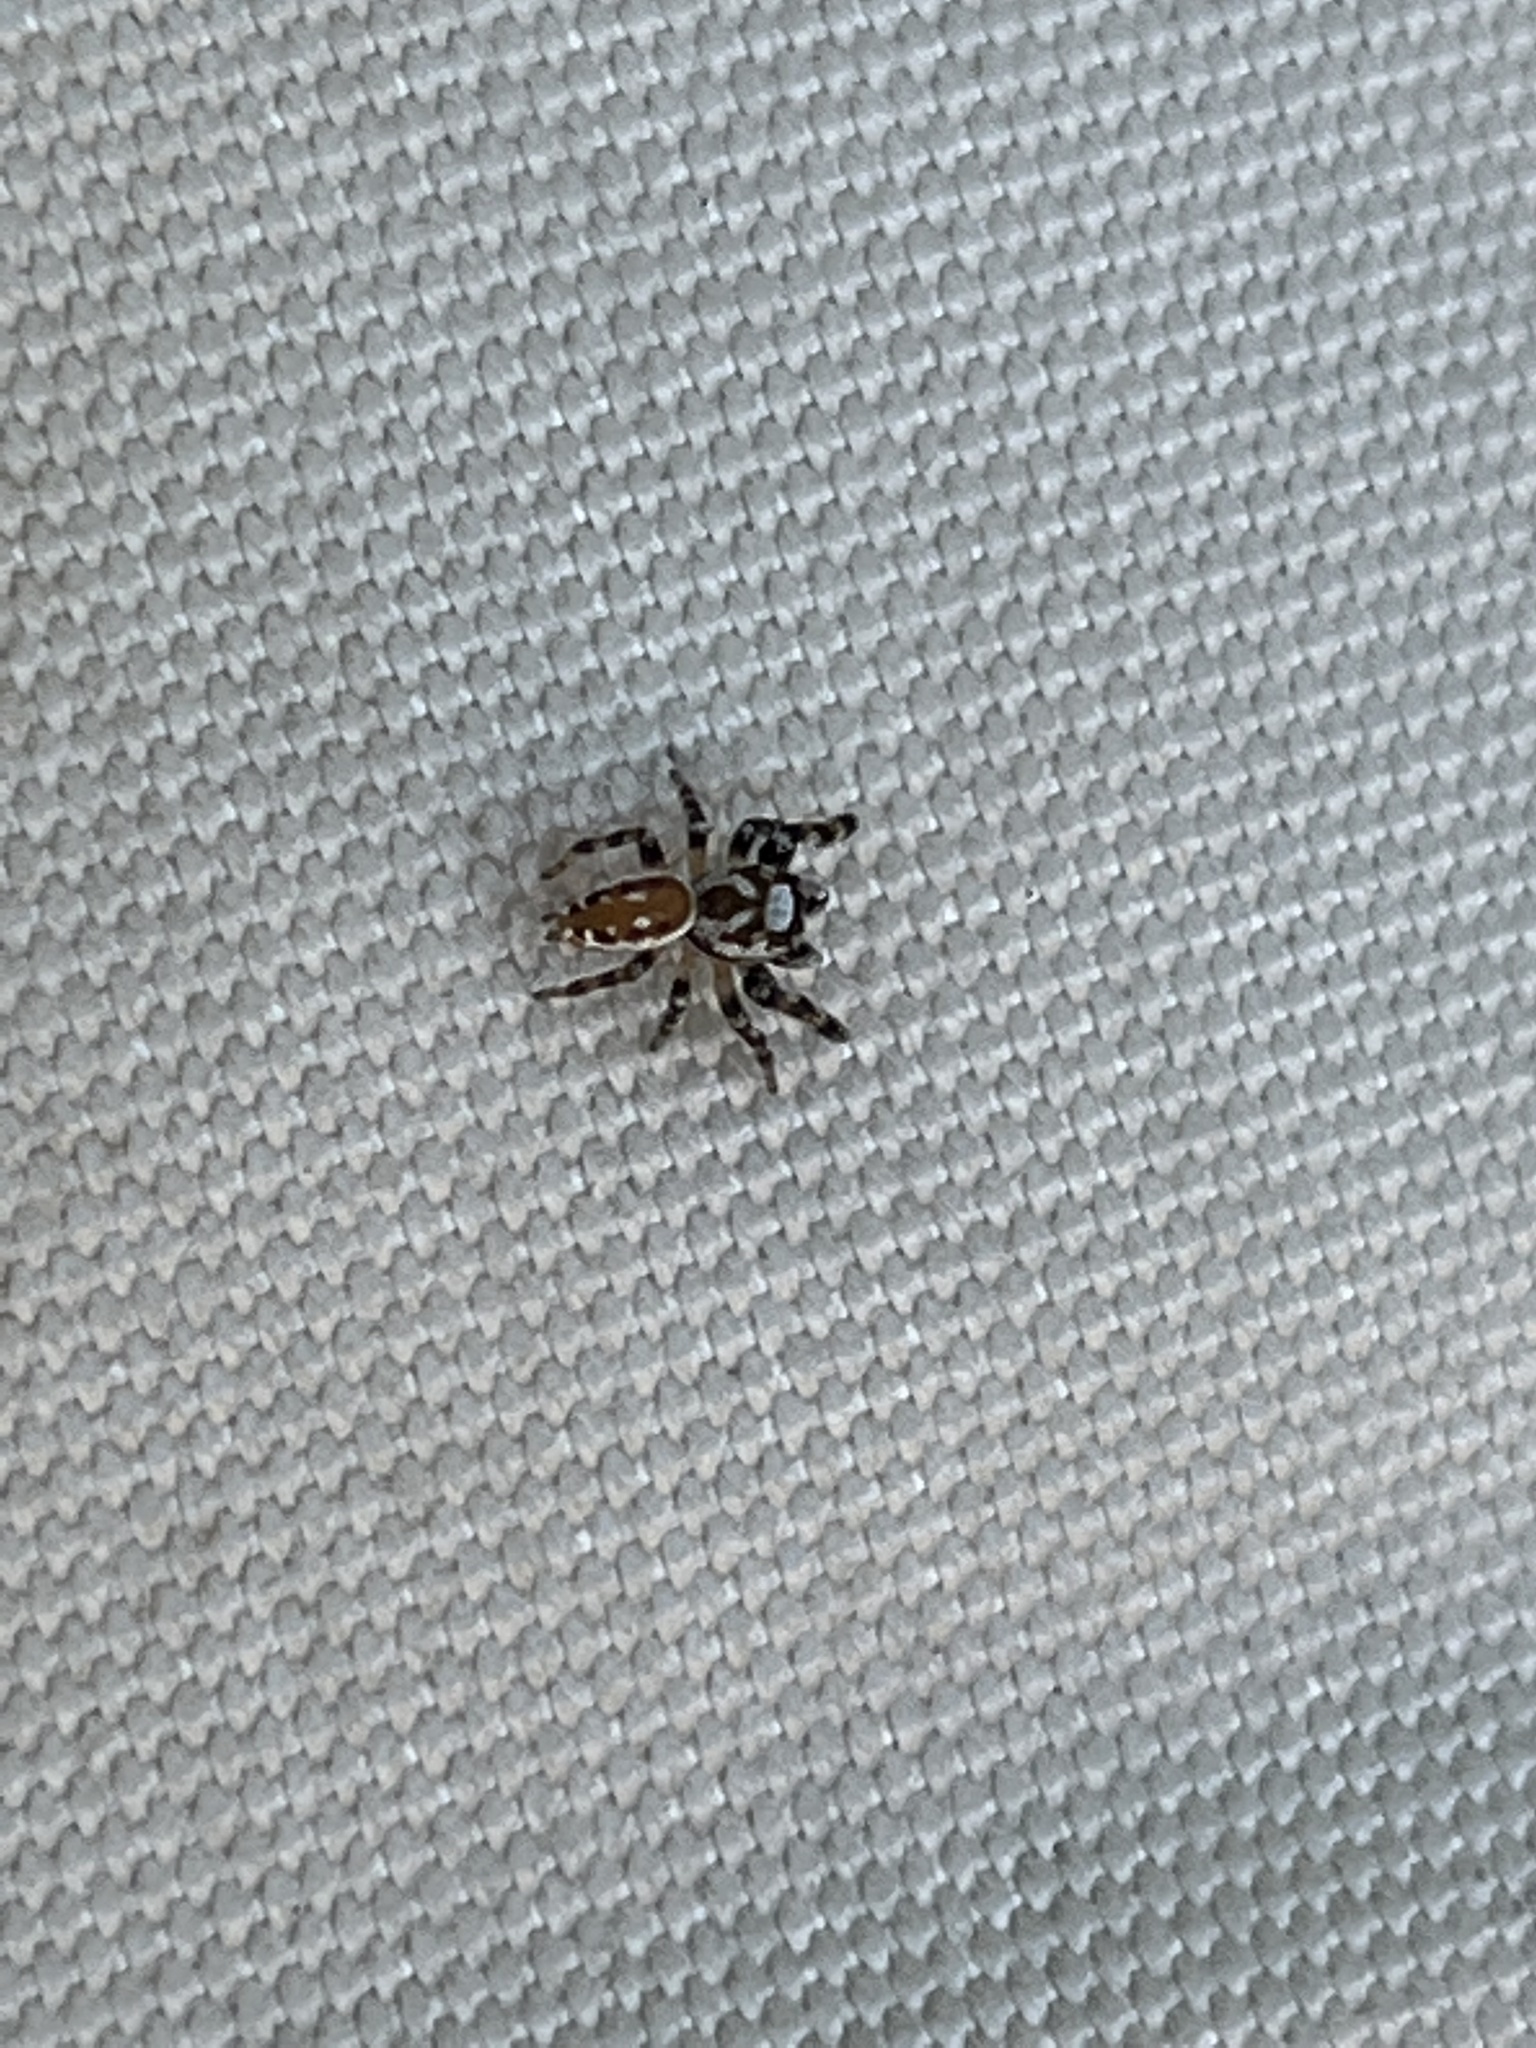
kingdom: Animalia
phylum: Arthropoda
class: Arachnida
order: Araneae
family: Salticidae
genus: Metaphidippus
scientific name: Metaphidippus chera
